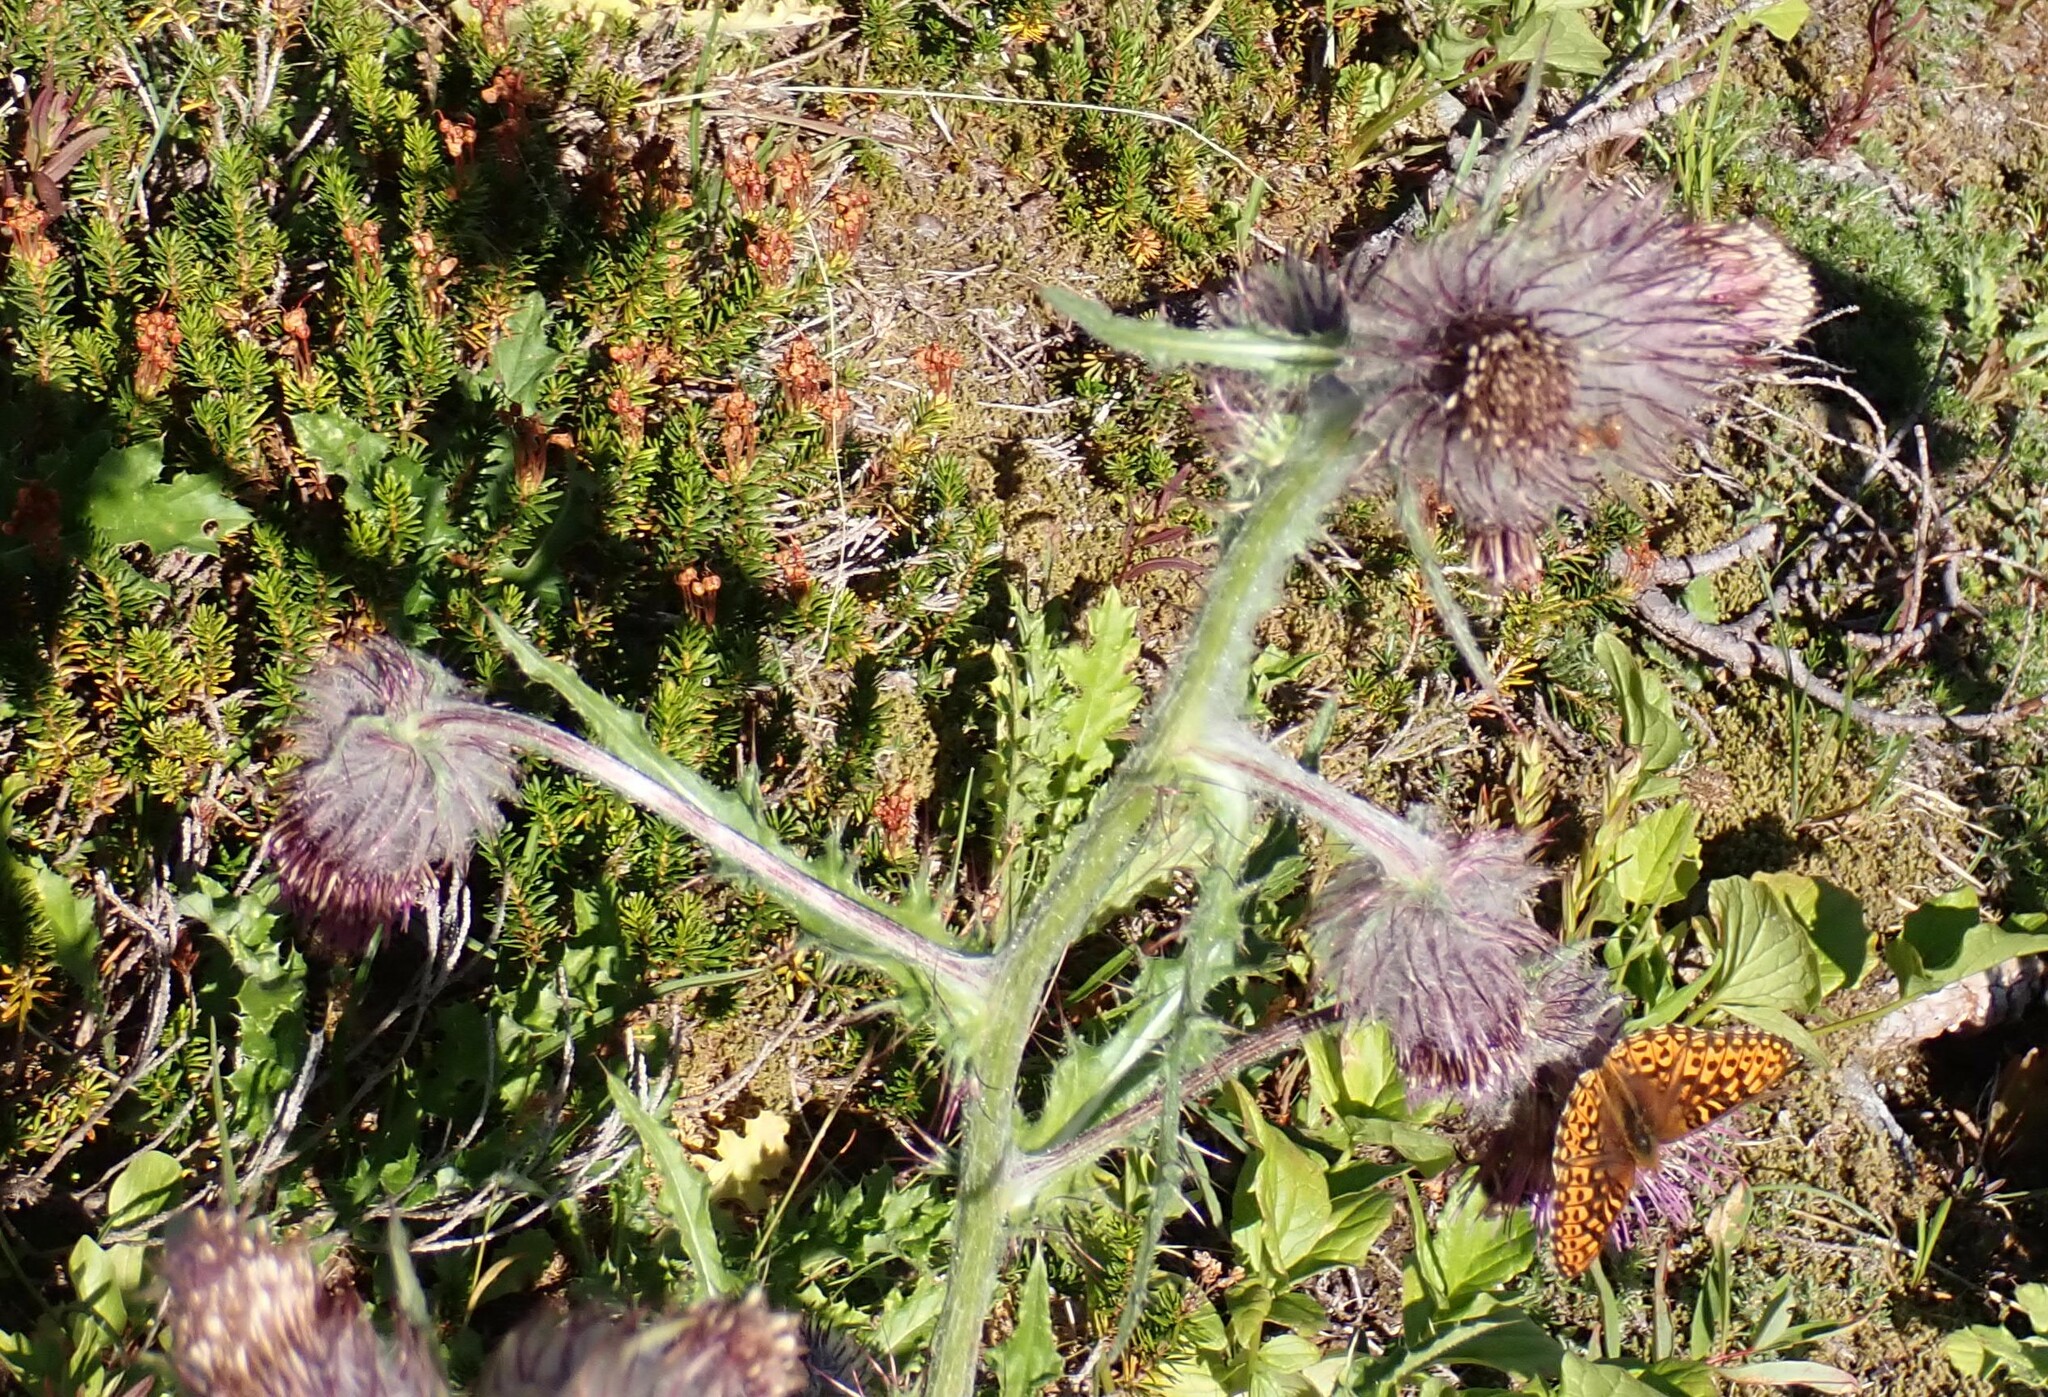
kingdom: Plantae
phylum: Tracheophyta
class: Magnoliopsida
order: Asterales
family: Asteraceae
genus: Cirsium
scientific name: Cirsium edule
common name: Indian thistle
